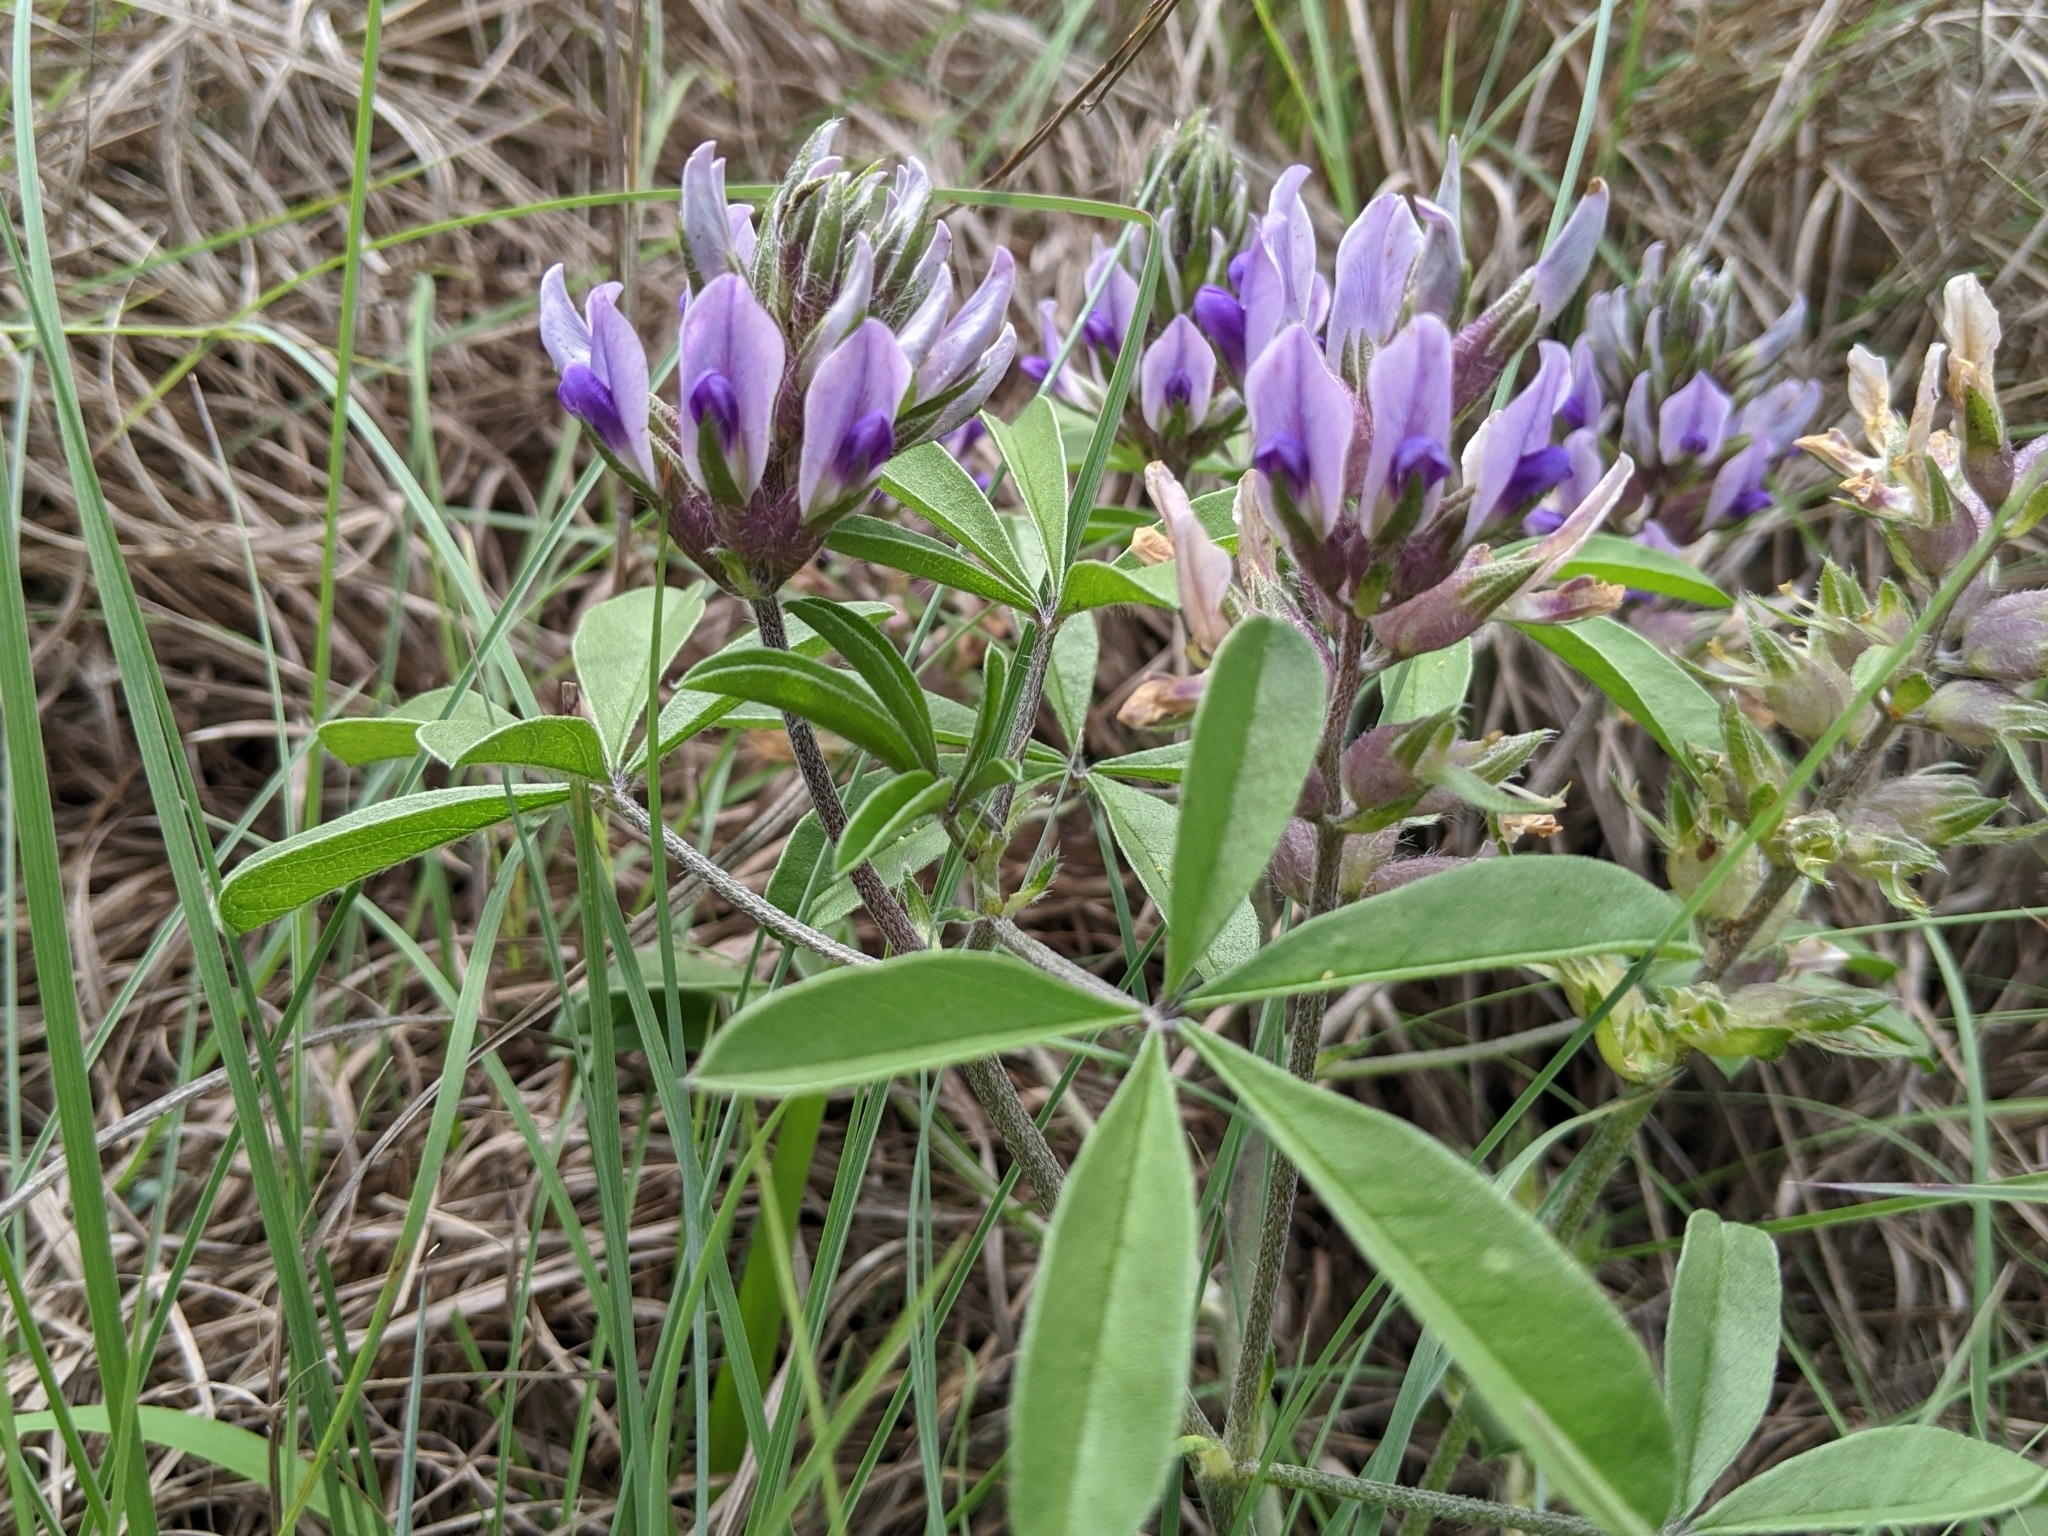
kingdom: Plantae
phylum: Tracheophyta
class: Magnoliopsida
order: Fabales
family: Fabaceae
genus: Pediomelum
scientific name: Pediomelum latestipulatum
